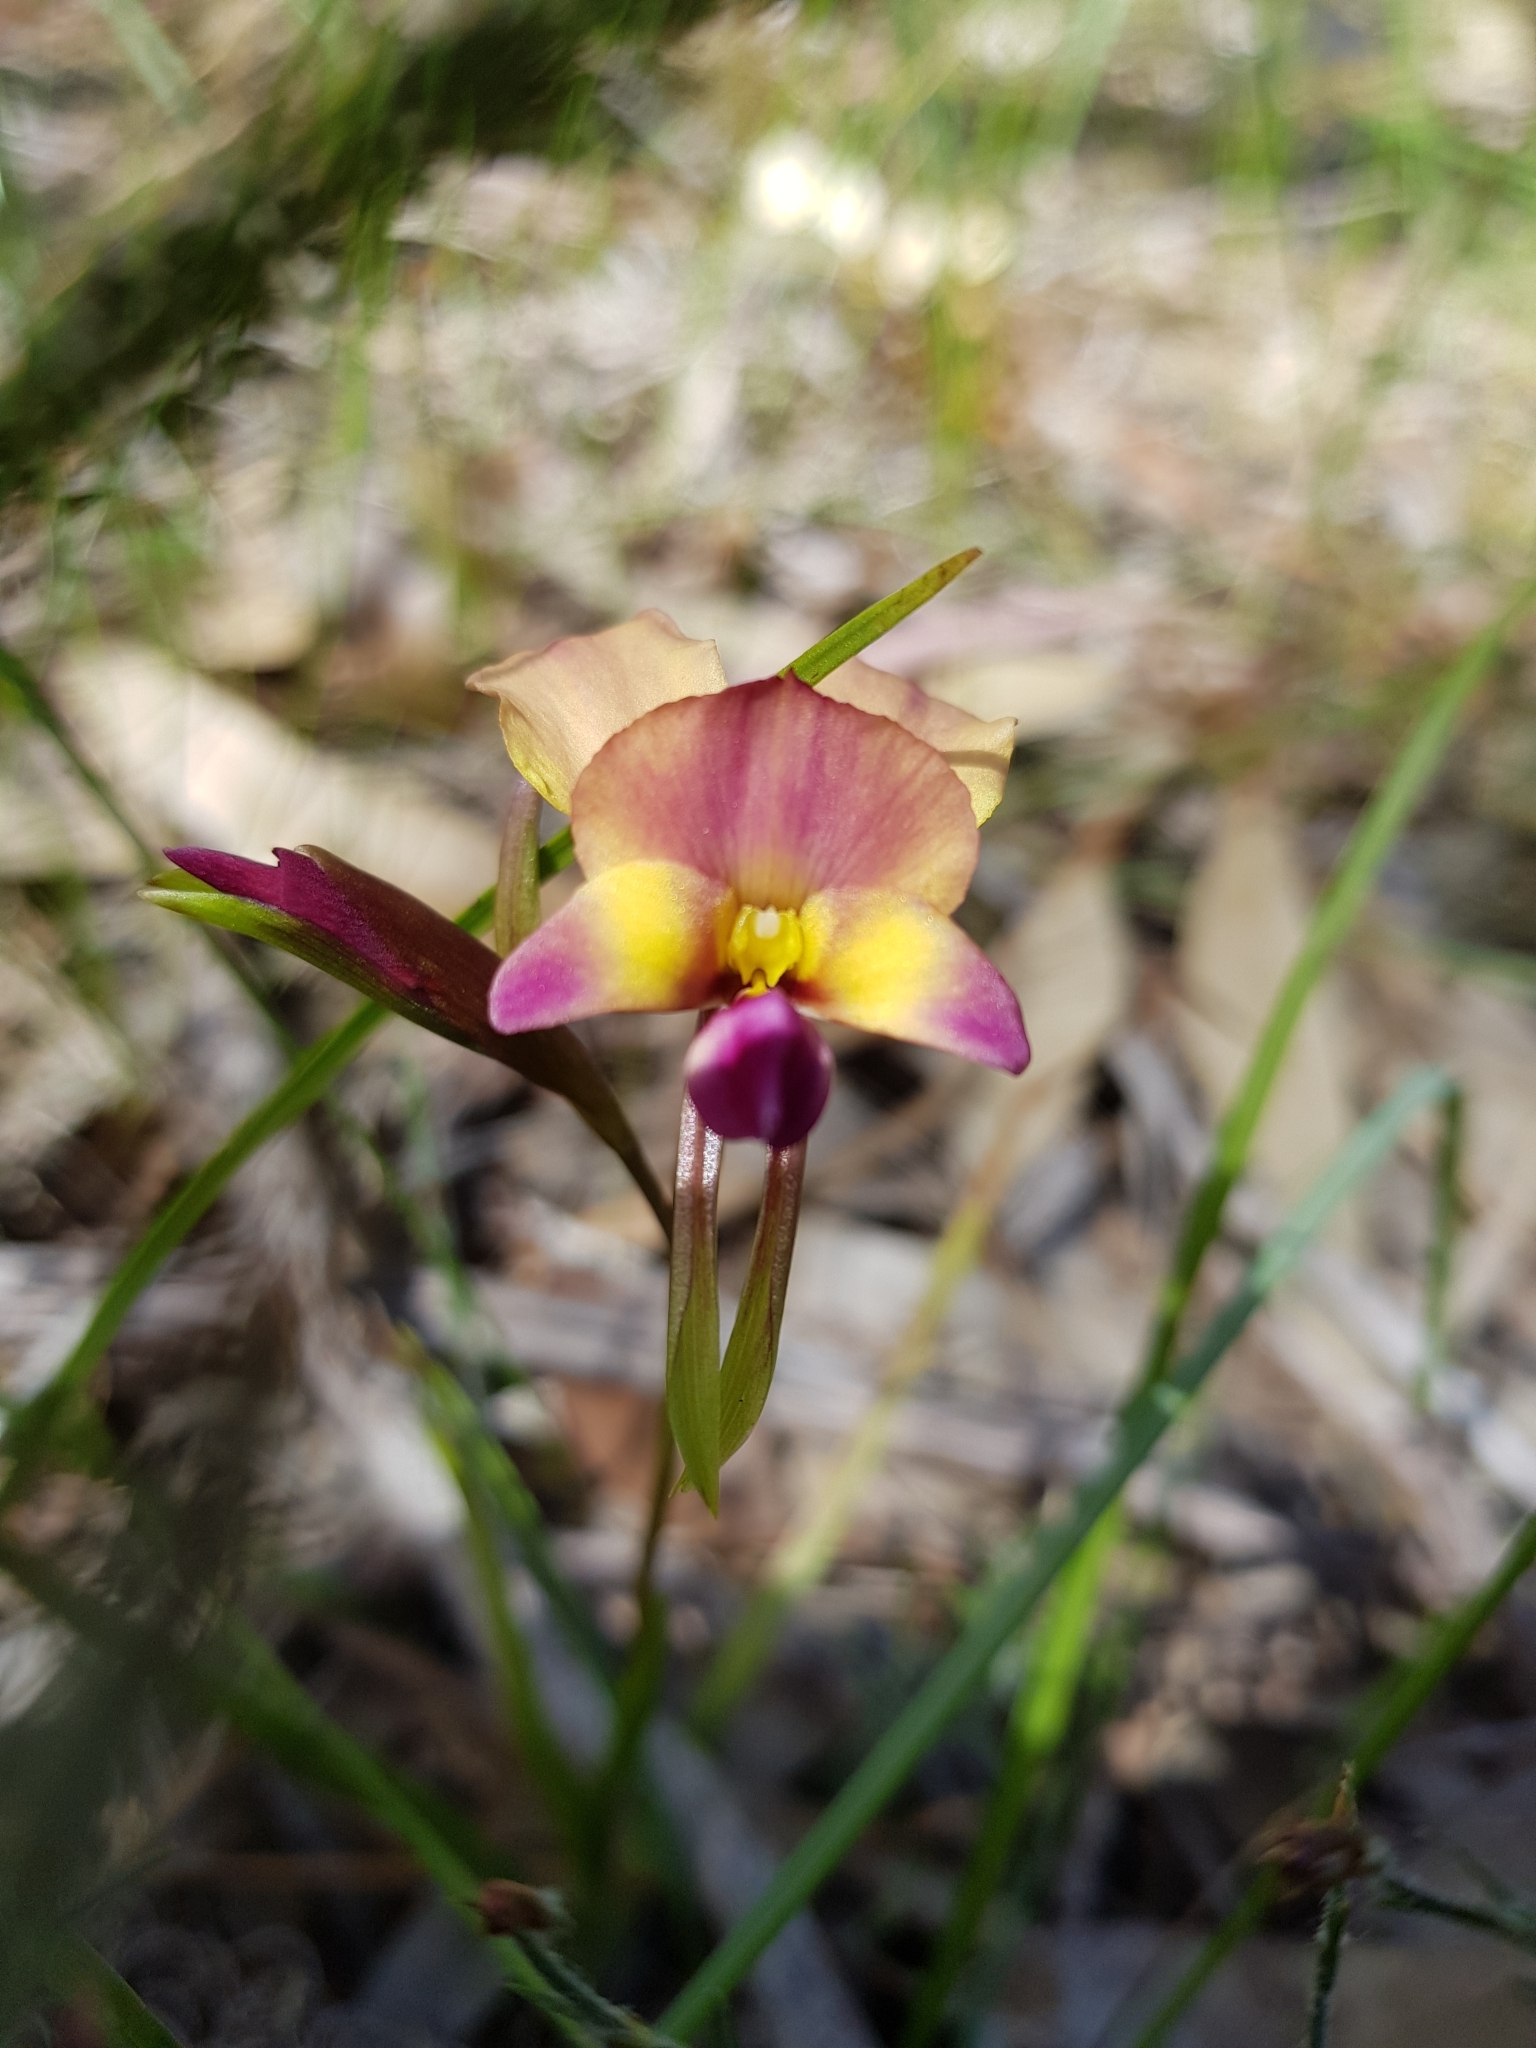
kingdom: Plantae
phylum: Tracheophyta
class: Liliopsida
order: Asparagales
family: Orchidaceae
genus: Diuris
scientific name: Diuris longifolia
